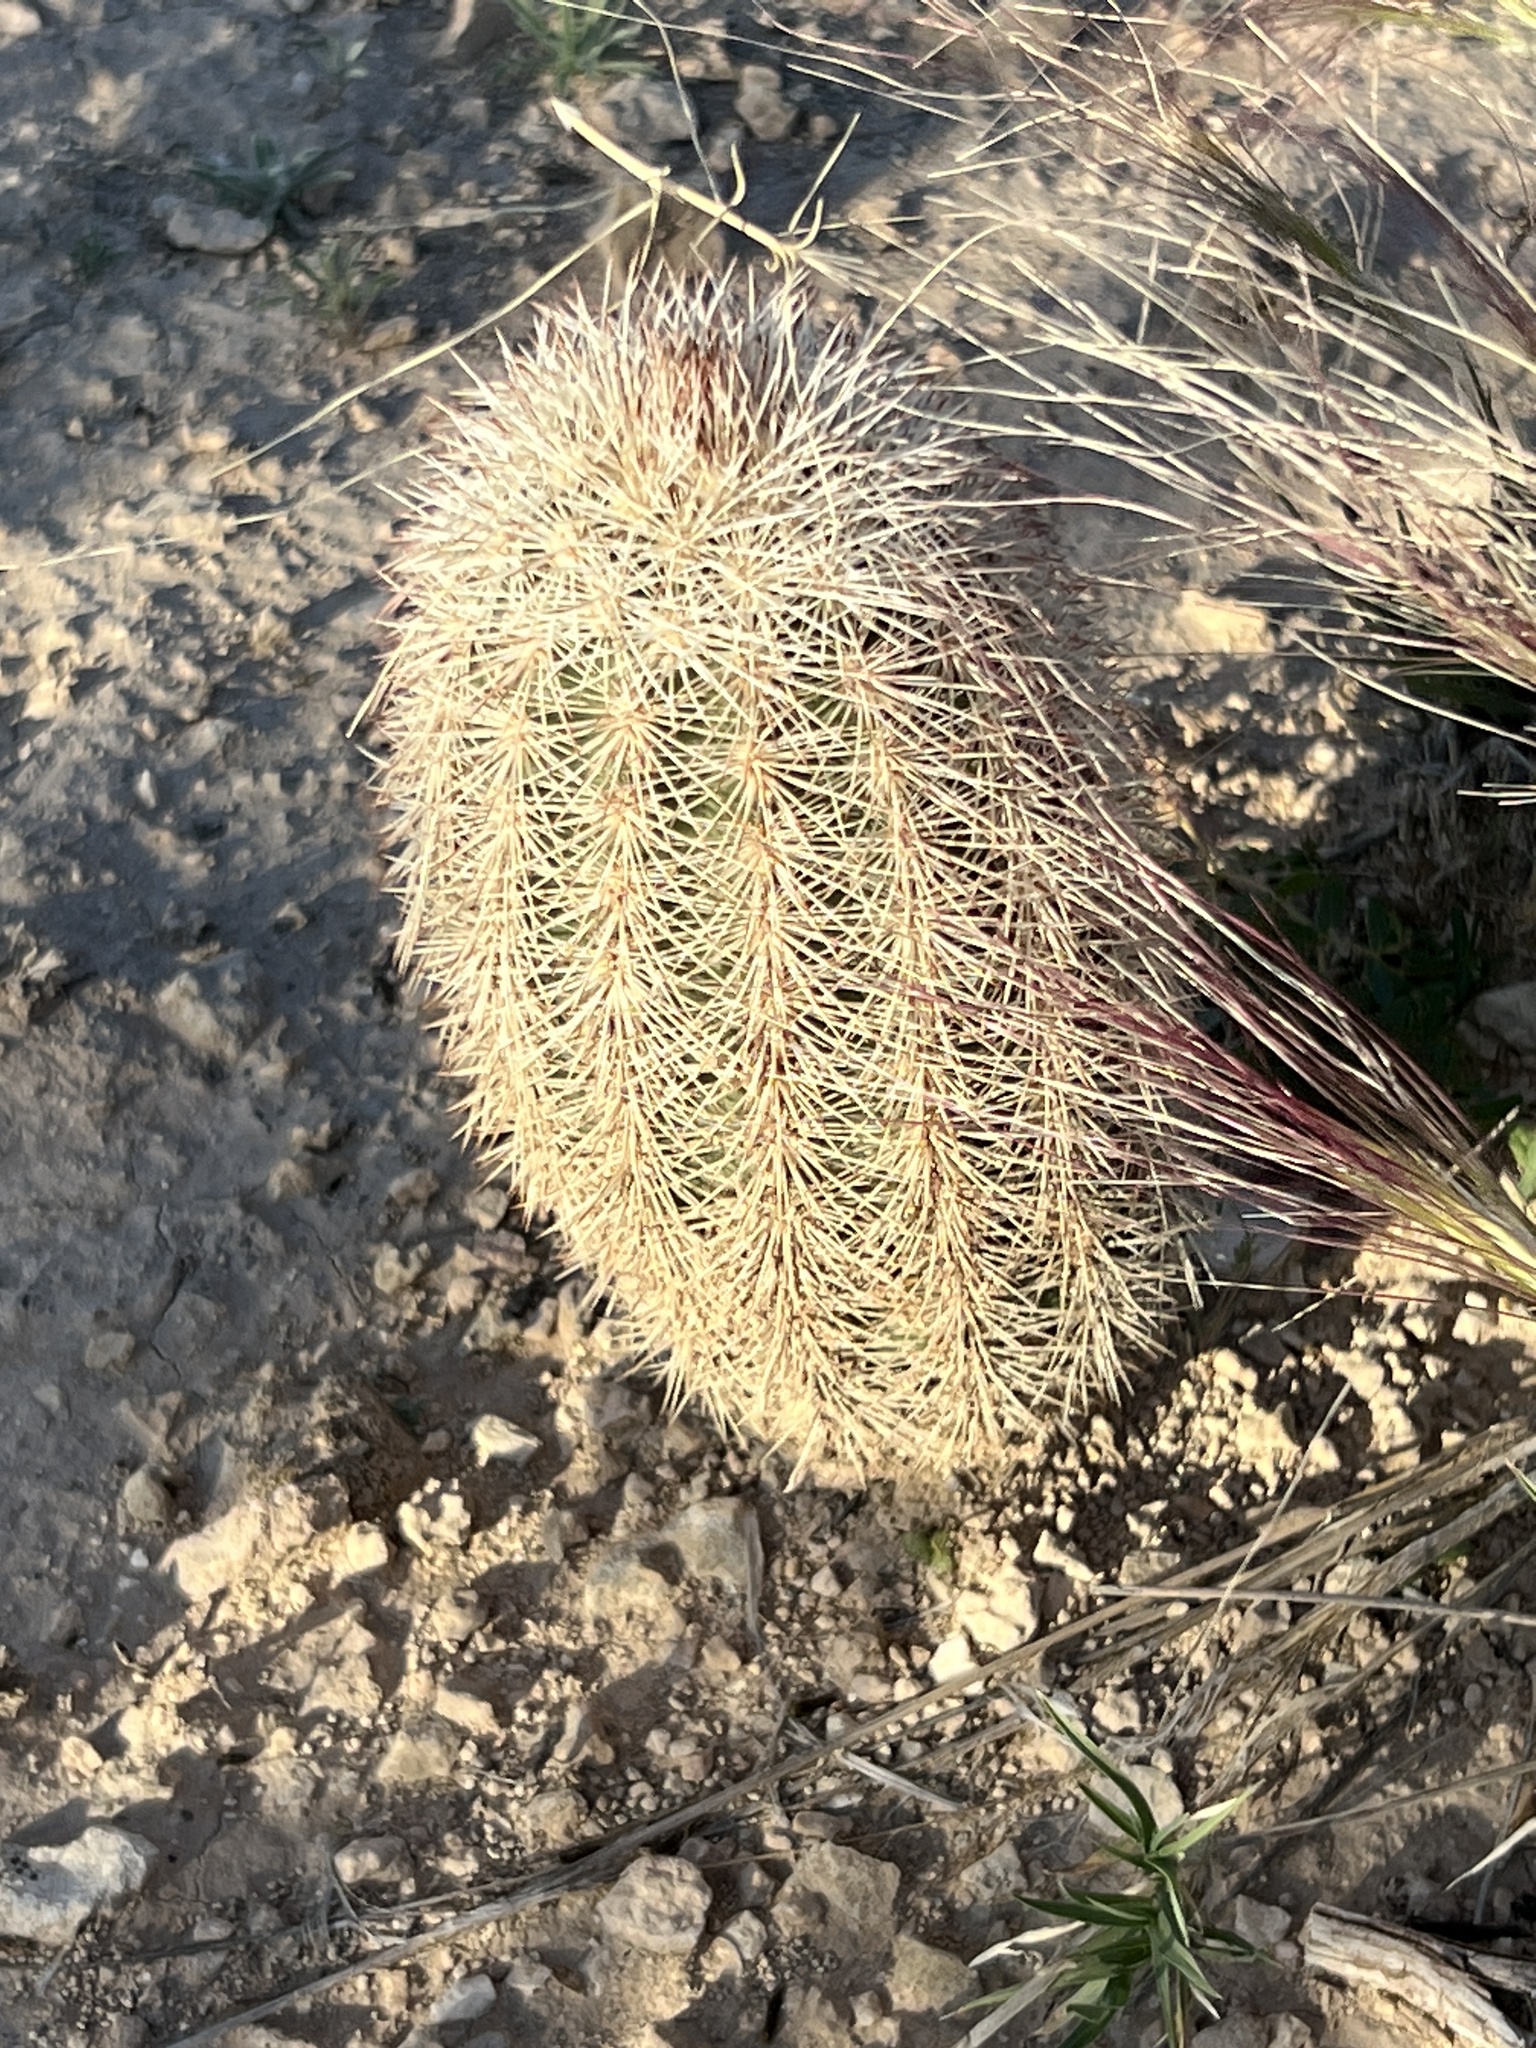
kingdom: Plantae
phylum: Tracheophyta
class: Magnoliopsida
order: Caryophyllales
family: Cactaceae
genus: Echinocereus
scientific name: Echinocereus dasyacanthus
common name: Spiny hedgehog cactus
